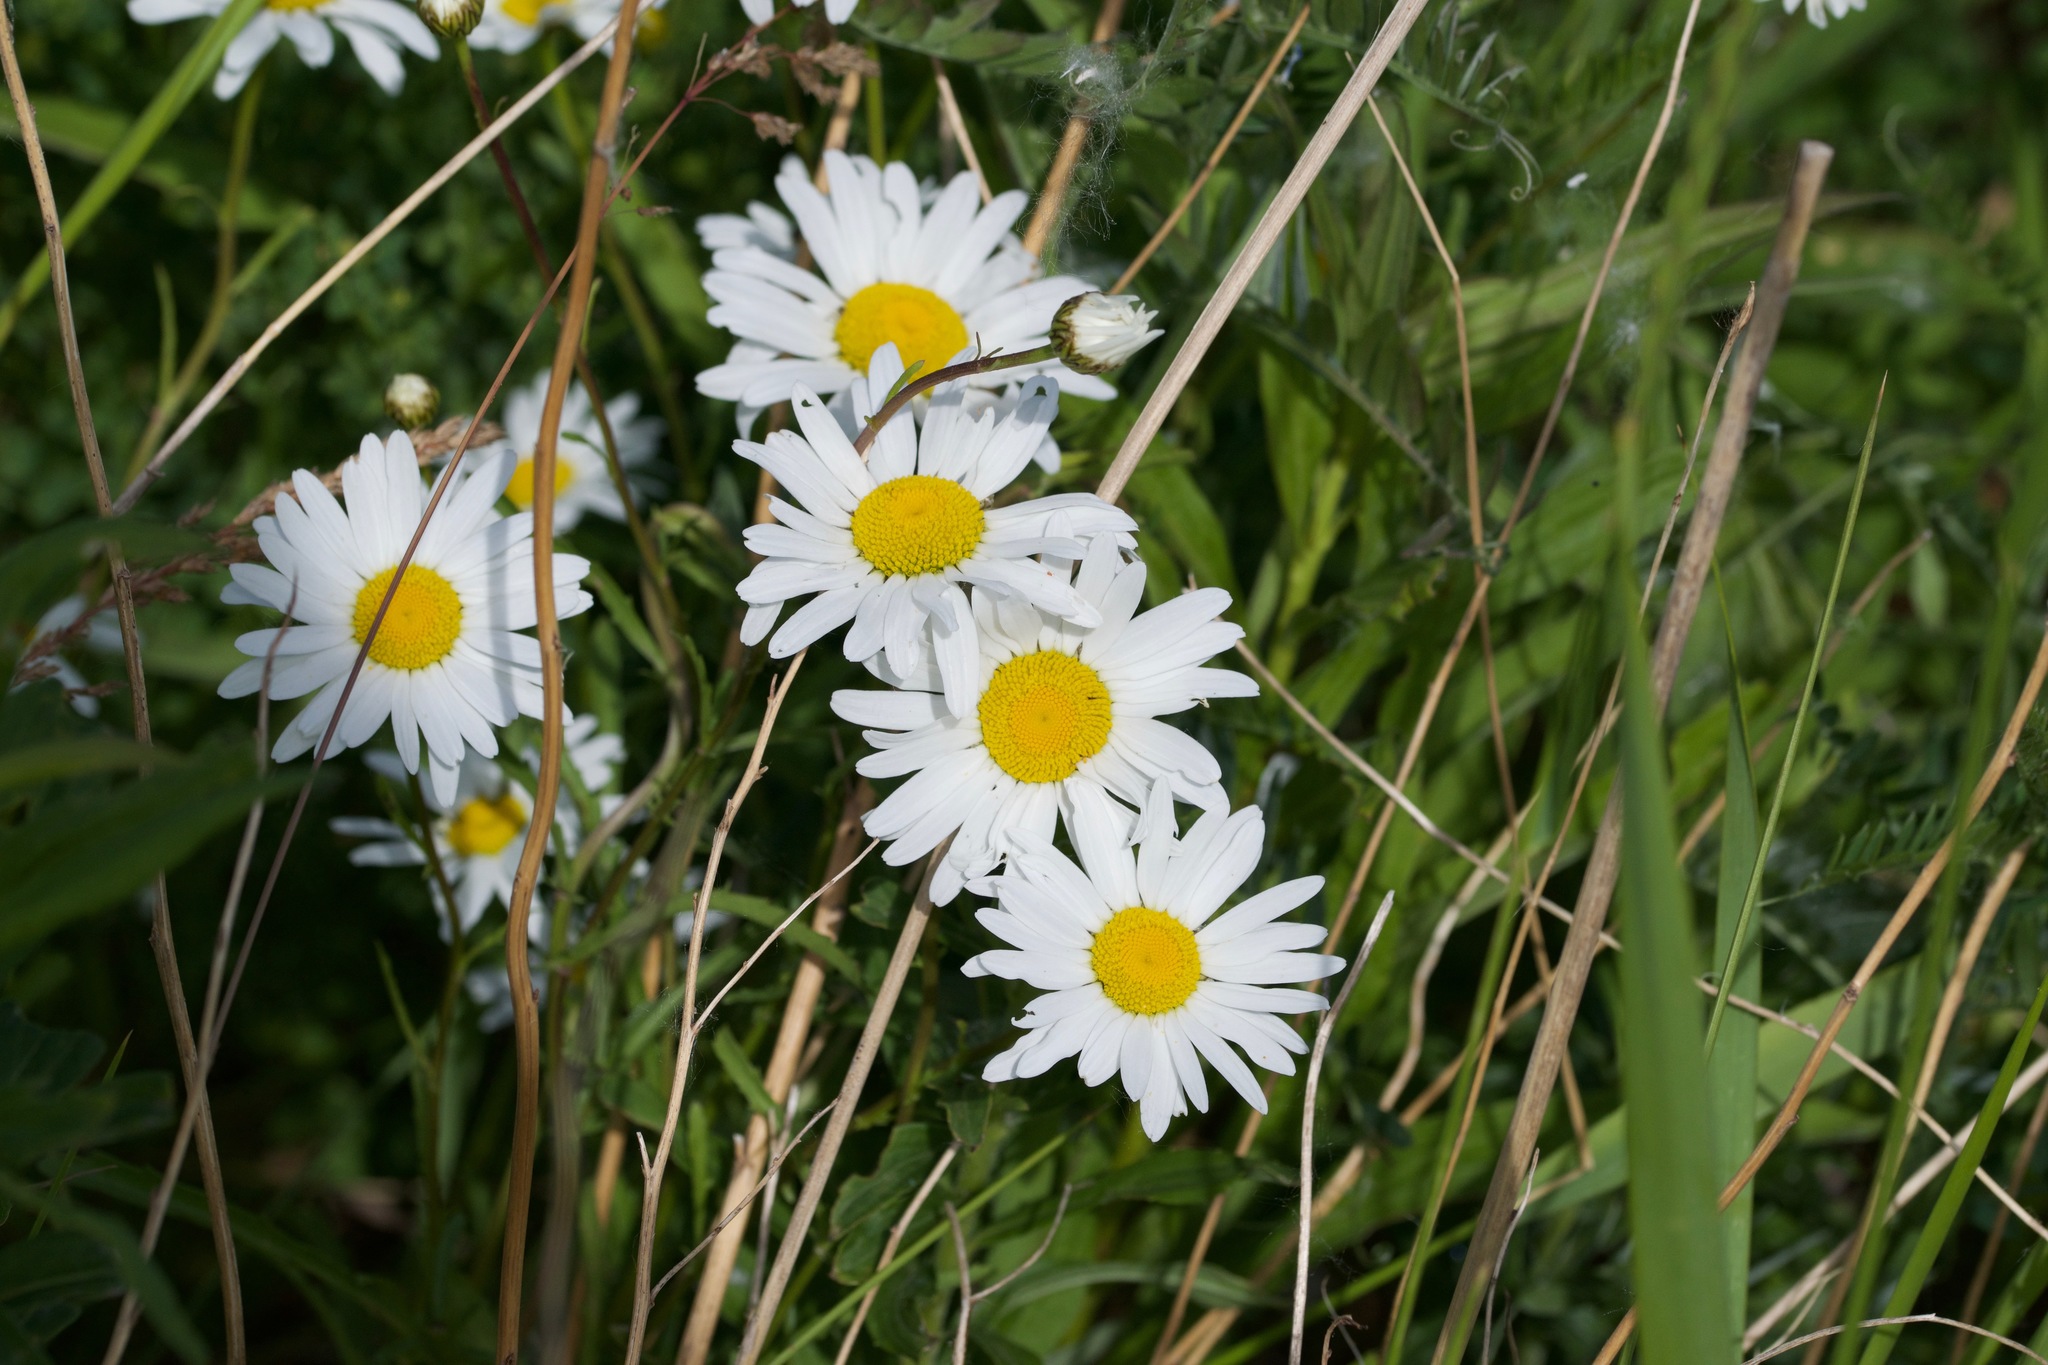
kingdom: Plantae
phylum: Tracheophyta
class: Magnoliopsida
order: Asterales
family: Asteraceae
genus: Leucanthemum
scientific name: Leucanthemum vulgare
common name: Oxeye daisy
